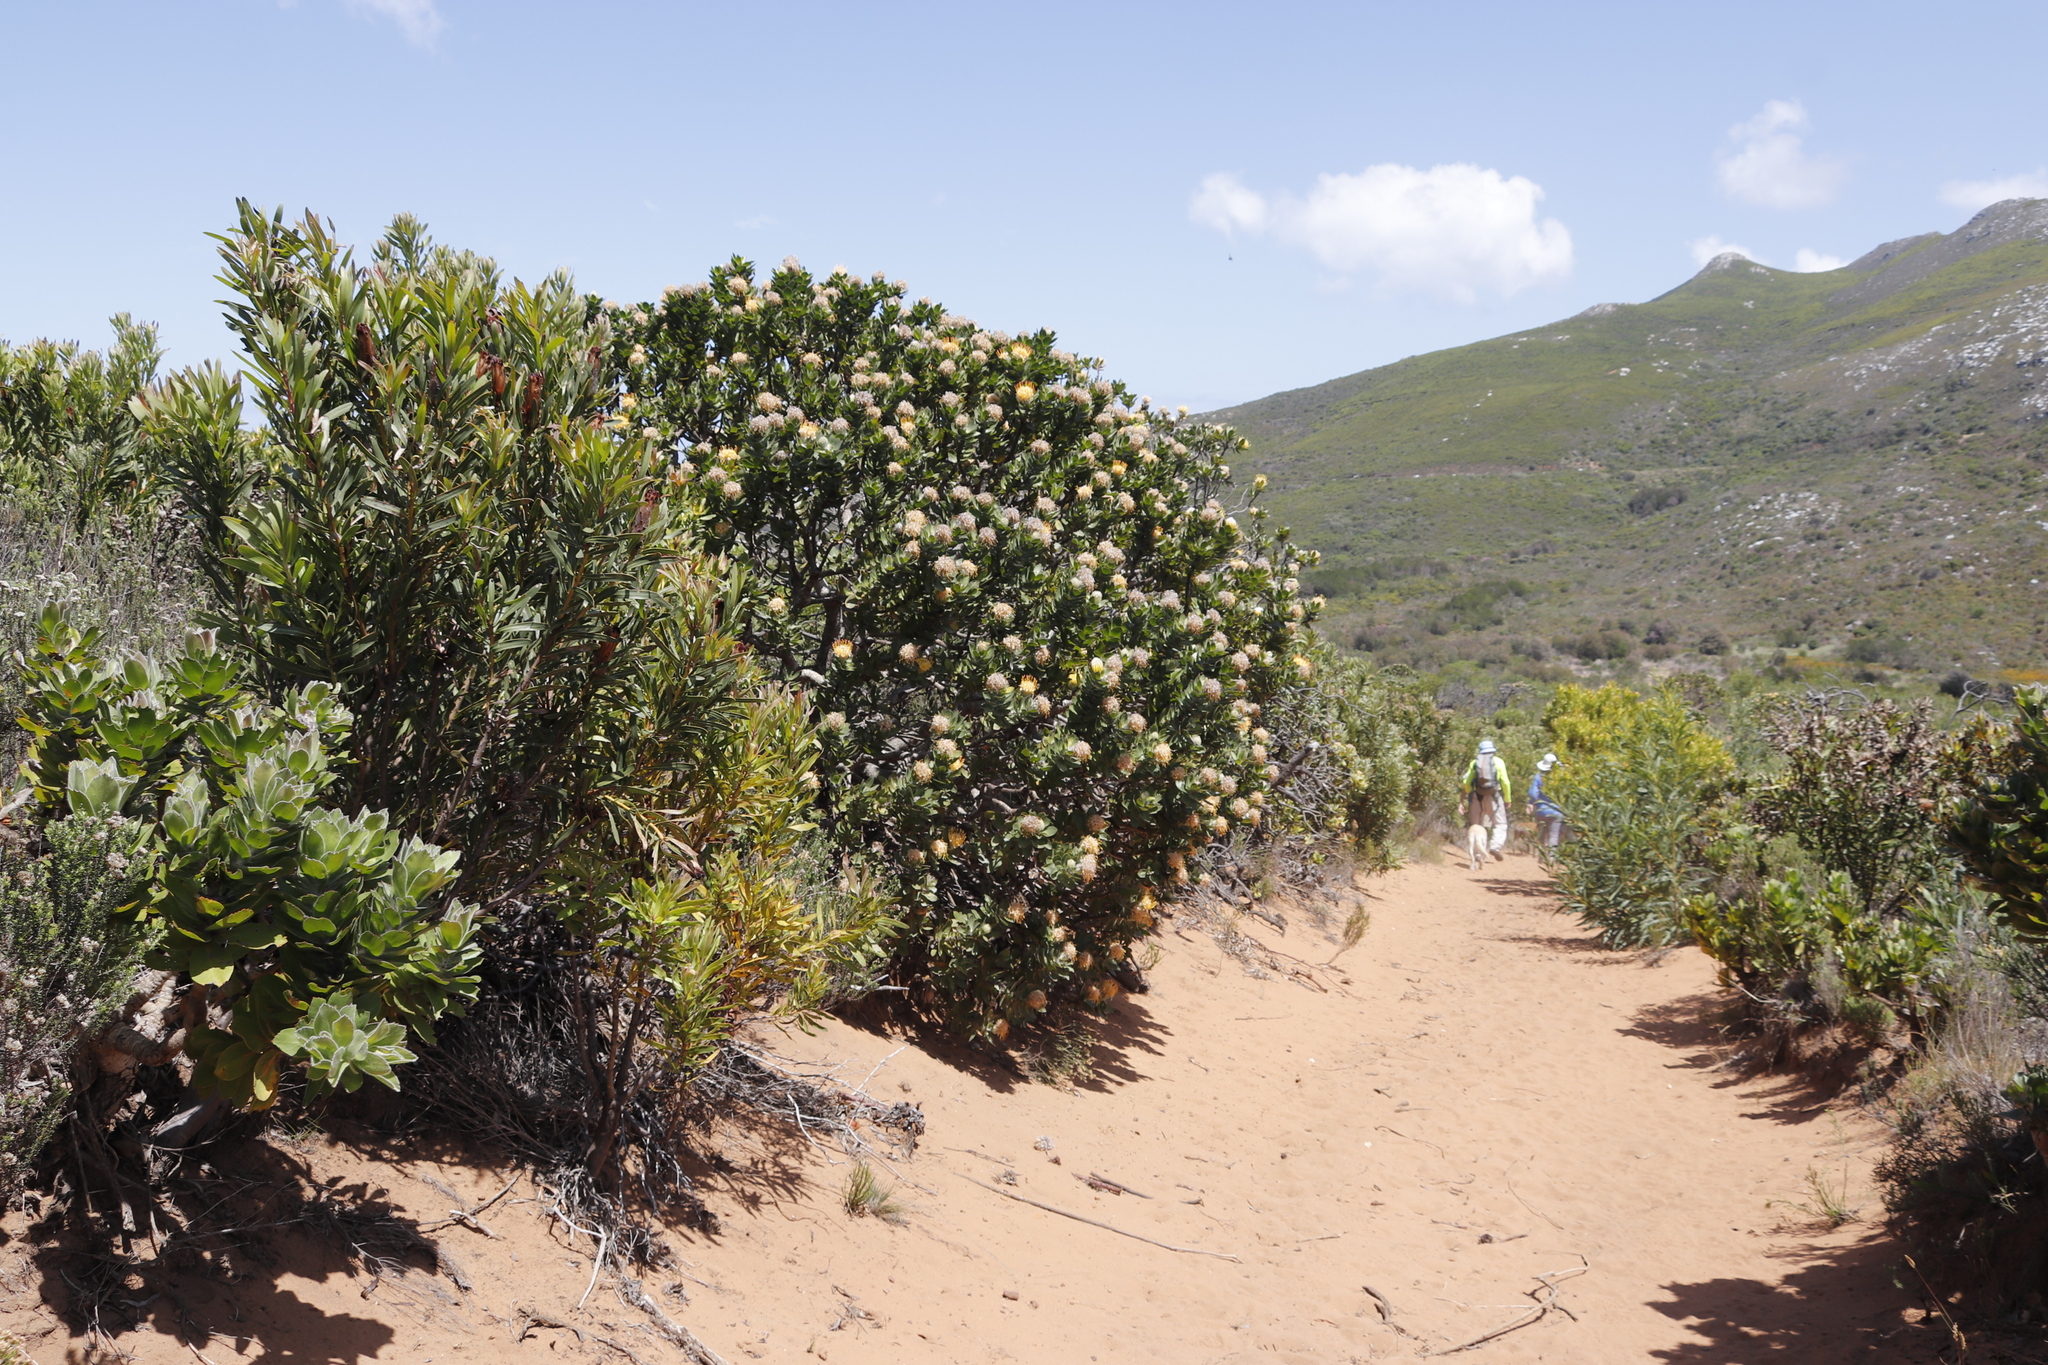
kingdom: Plantae
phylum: Tracheophyta
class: Magnoliopsida
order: Proteales
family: Proteaceae
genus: Protea
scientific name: Protea repens
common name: Sugarbush
